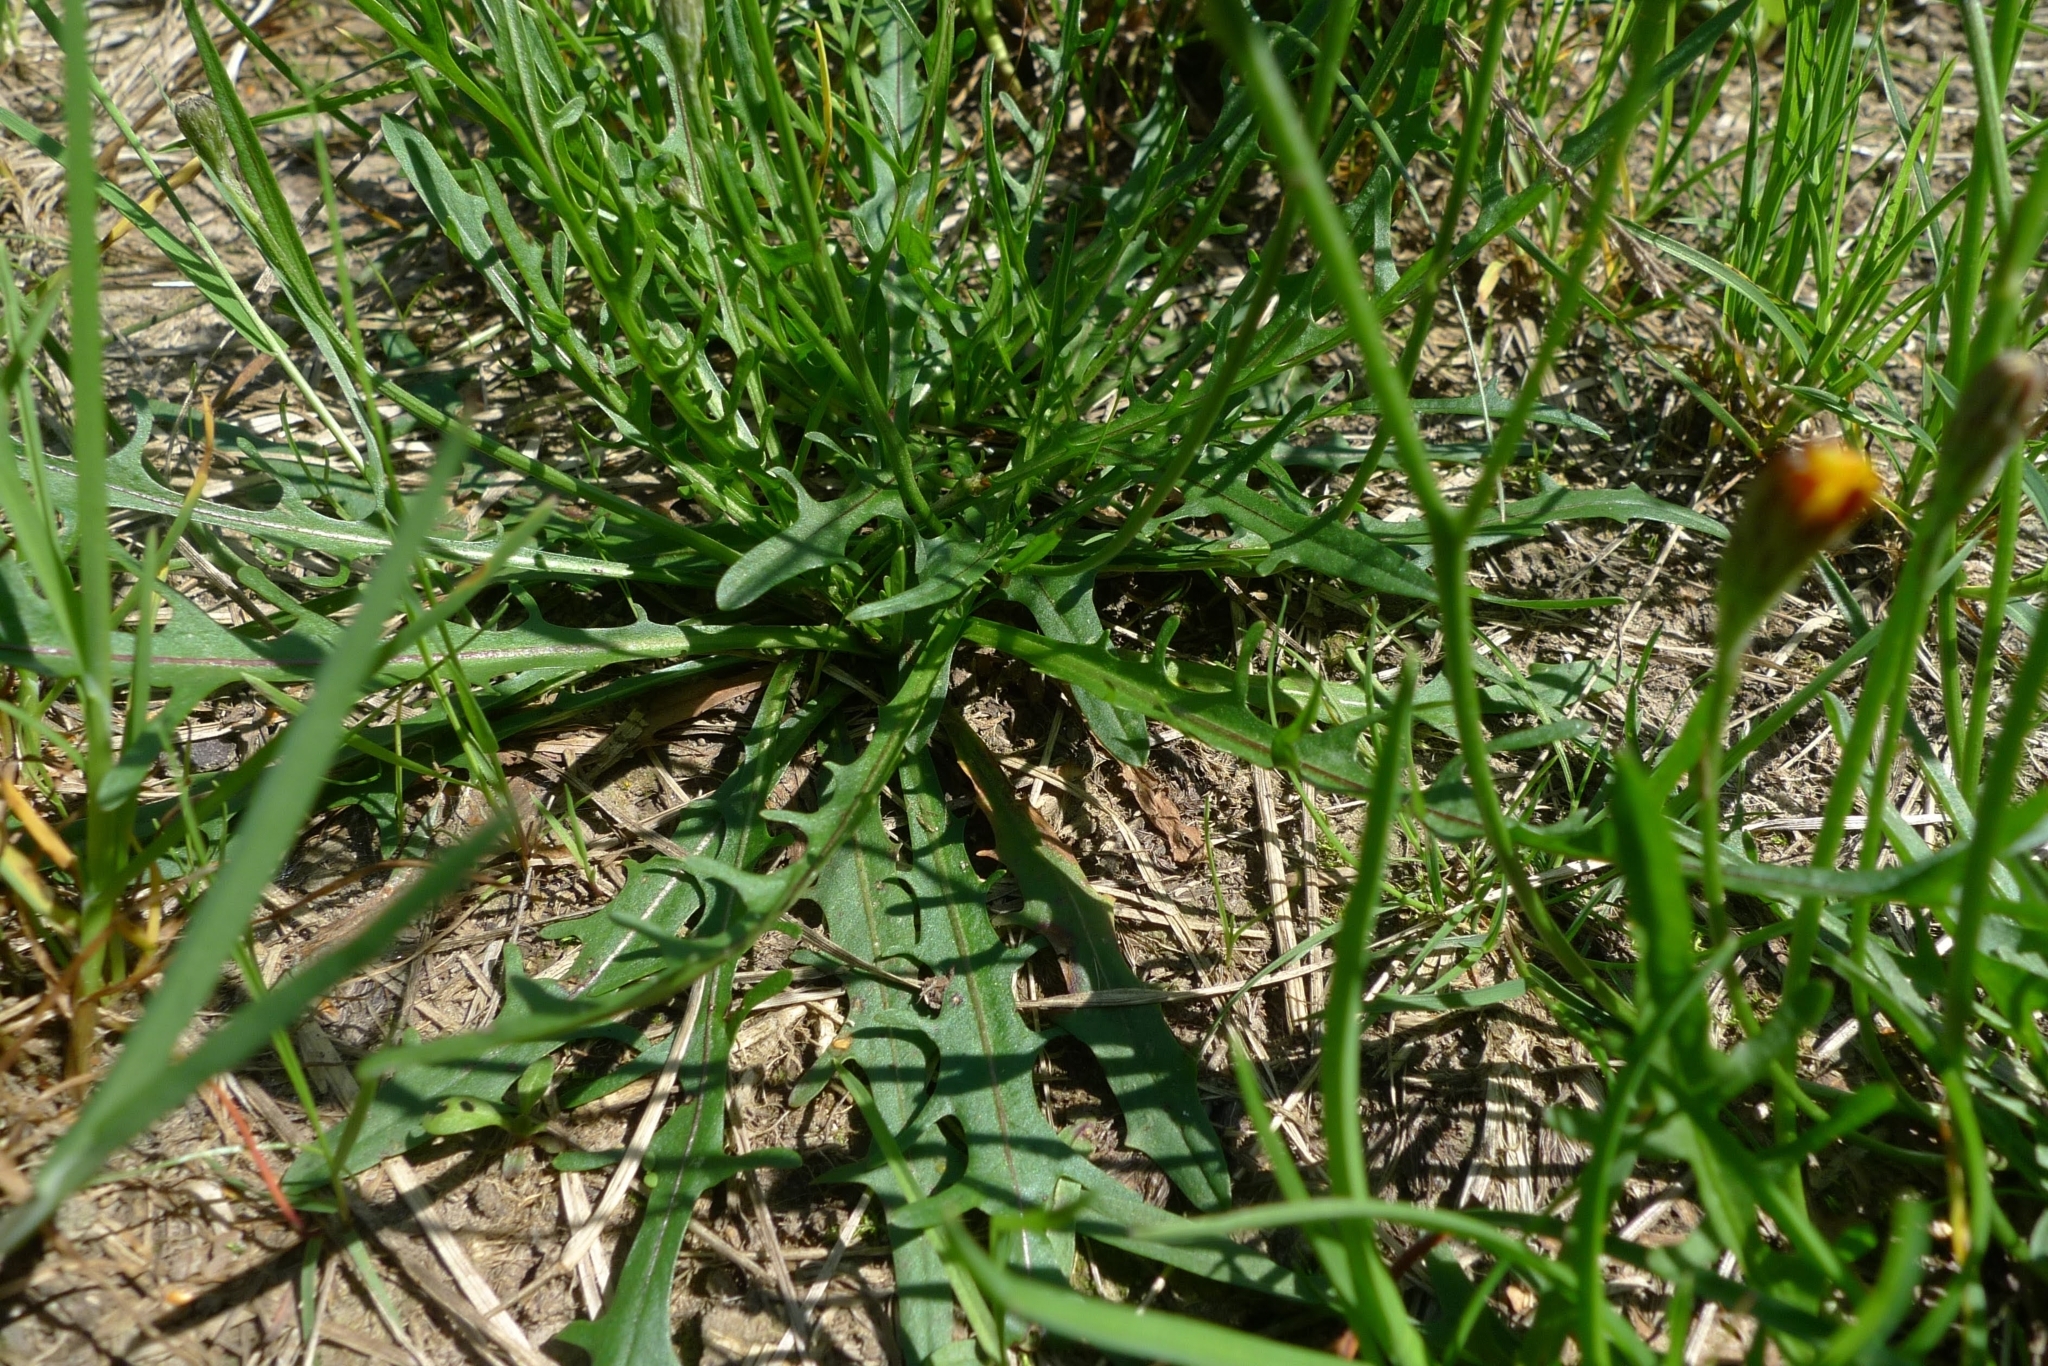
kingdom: Plantae
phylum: Tracheophyta
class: Magnoliopsida
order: Asterales
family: Asteraceae
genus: Scorzoneroides
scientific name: Scorzoneroides autumnalis
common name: Autumn hawkbit
